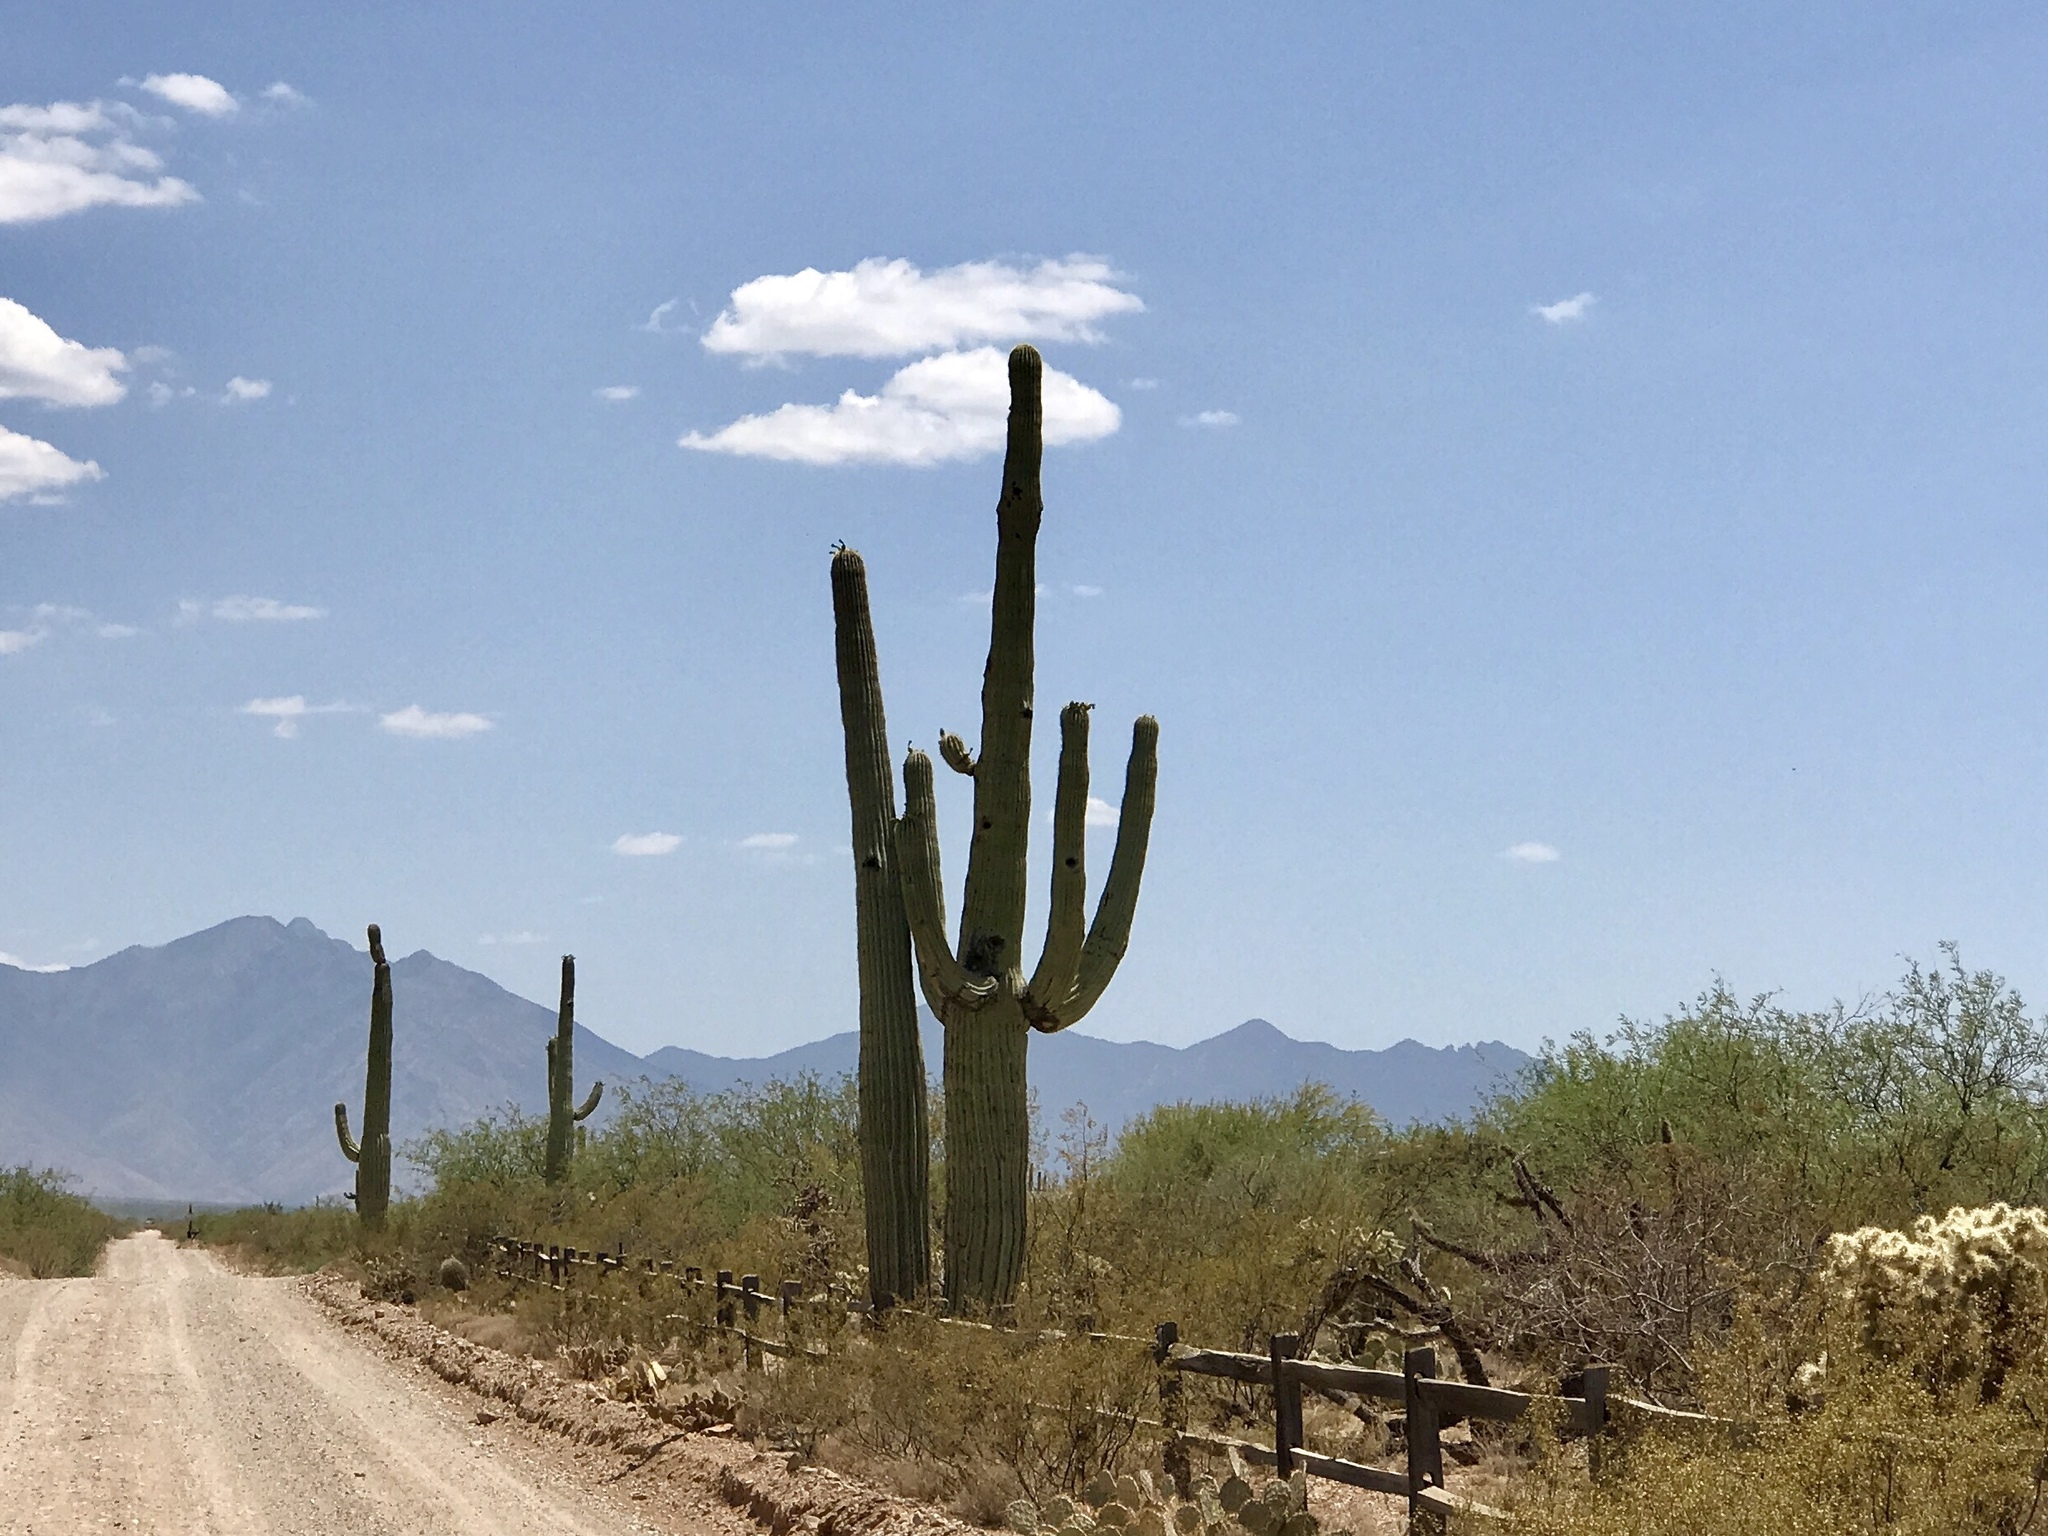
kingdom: Plantae
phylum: Tracheophyta
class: Magnoliopsida
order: Caryophyllales
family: Cactaceae
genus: Carnegiea
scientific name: Carnegiea gigantea
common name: Saguaro
